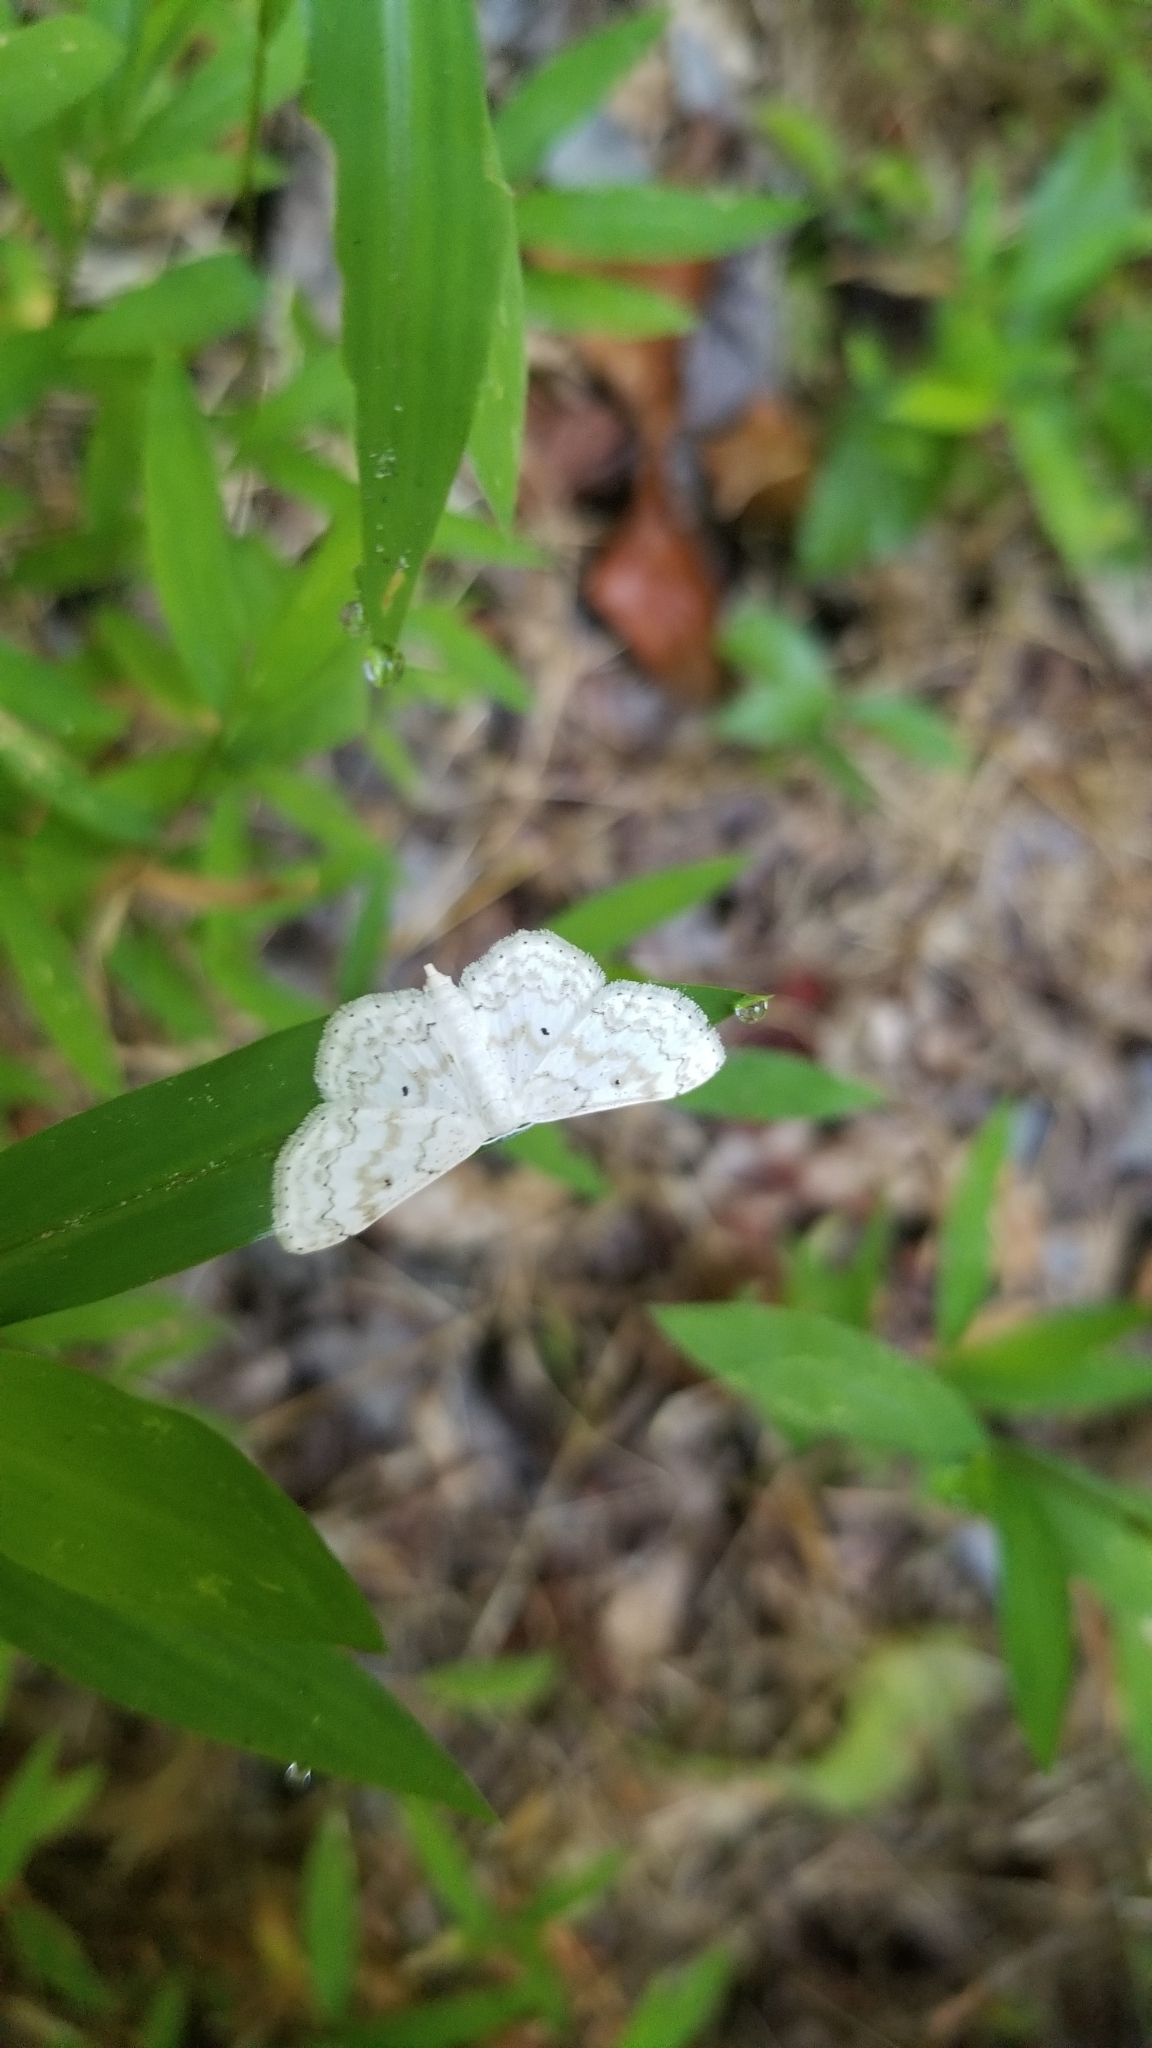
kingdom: Animalia
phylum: Arthropoda
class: Insecta
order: Lepidoptera
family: Geometridae
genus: Idaea
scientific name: Idaea obfusaria
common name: Rippled wave
